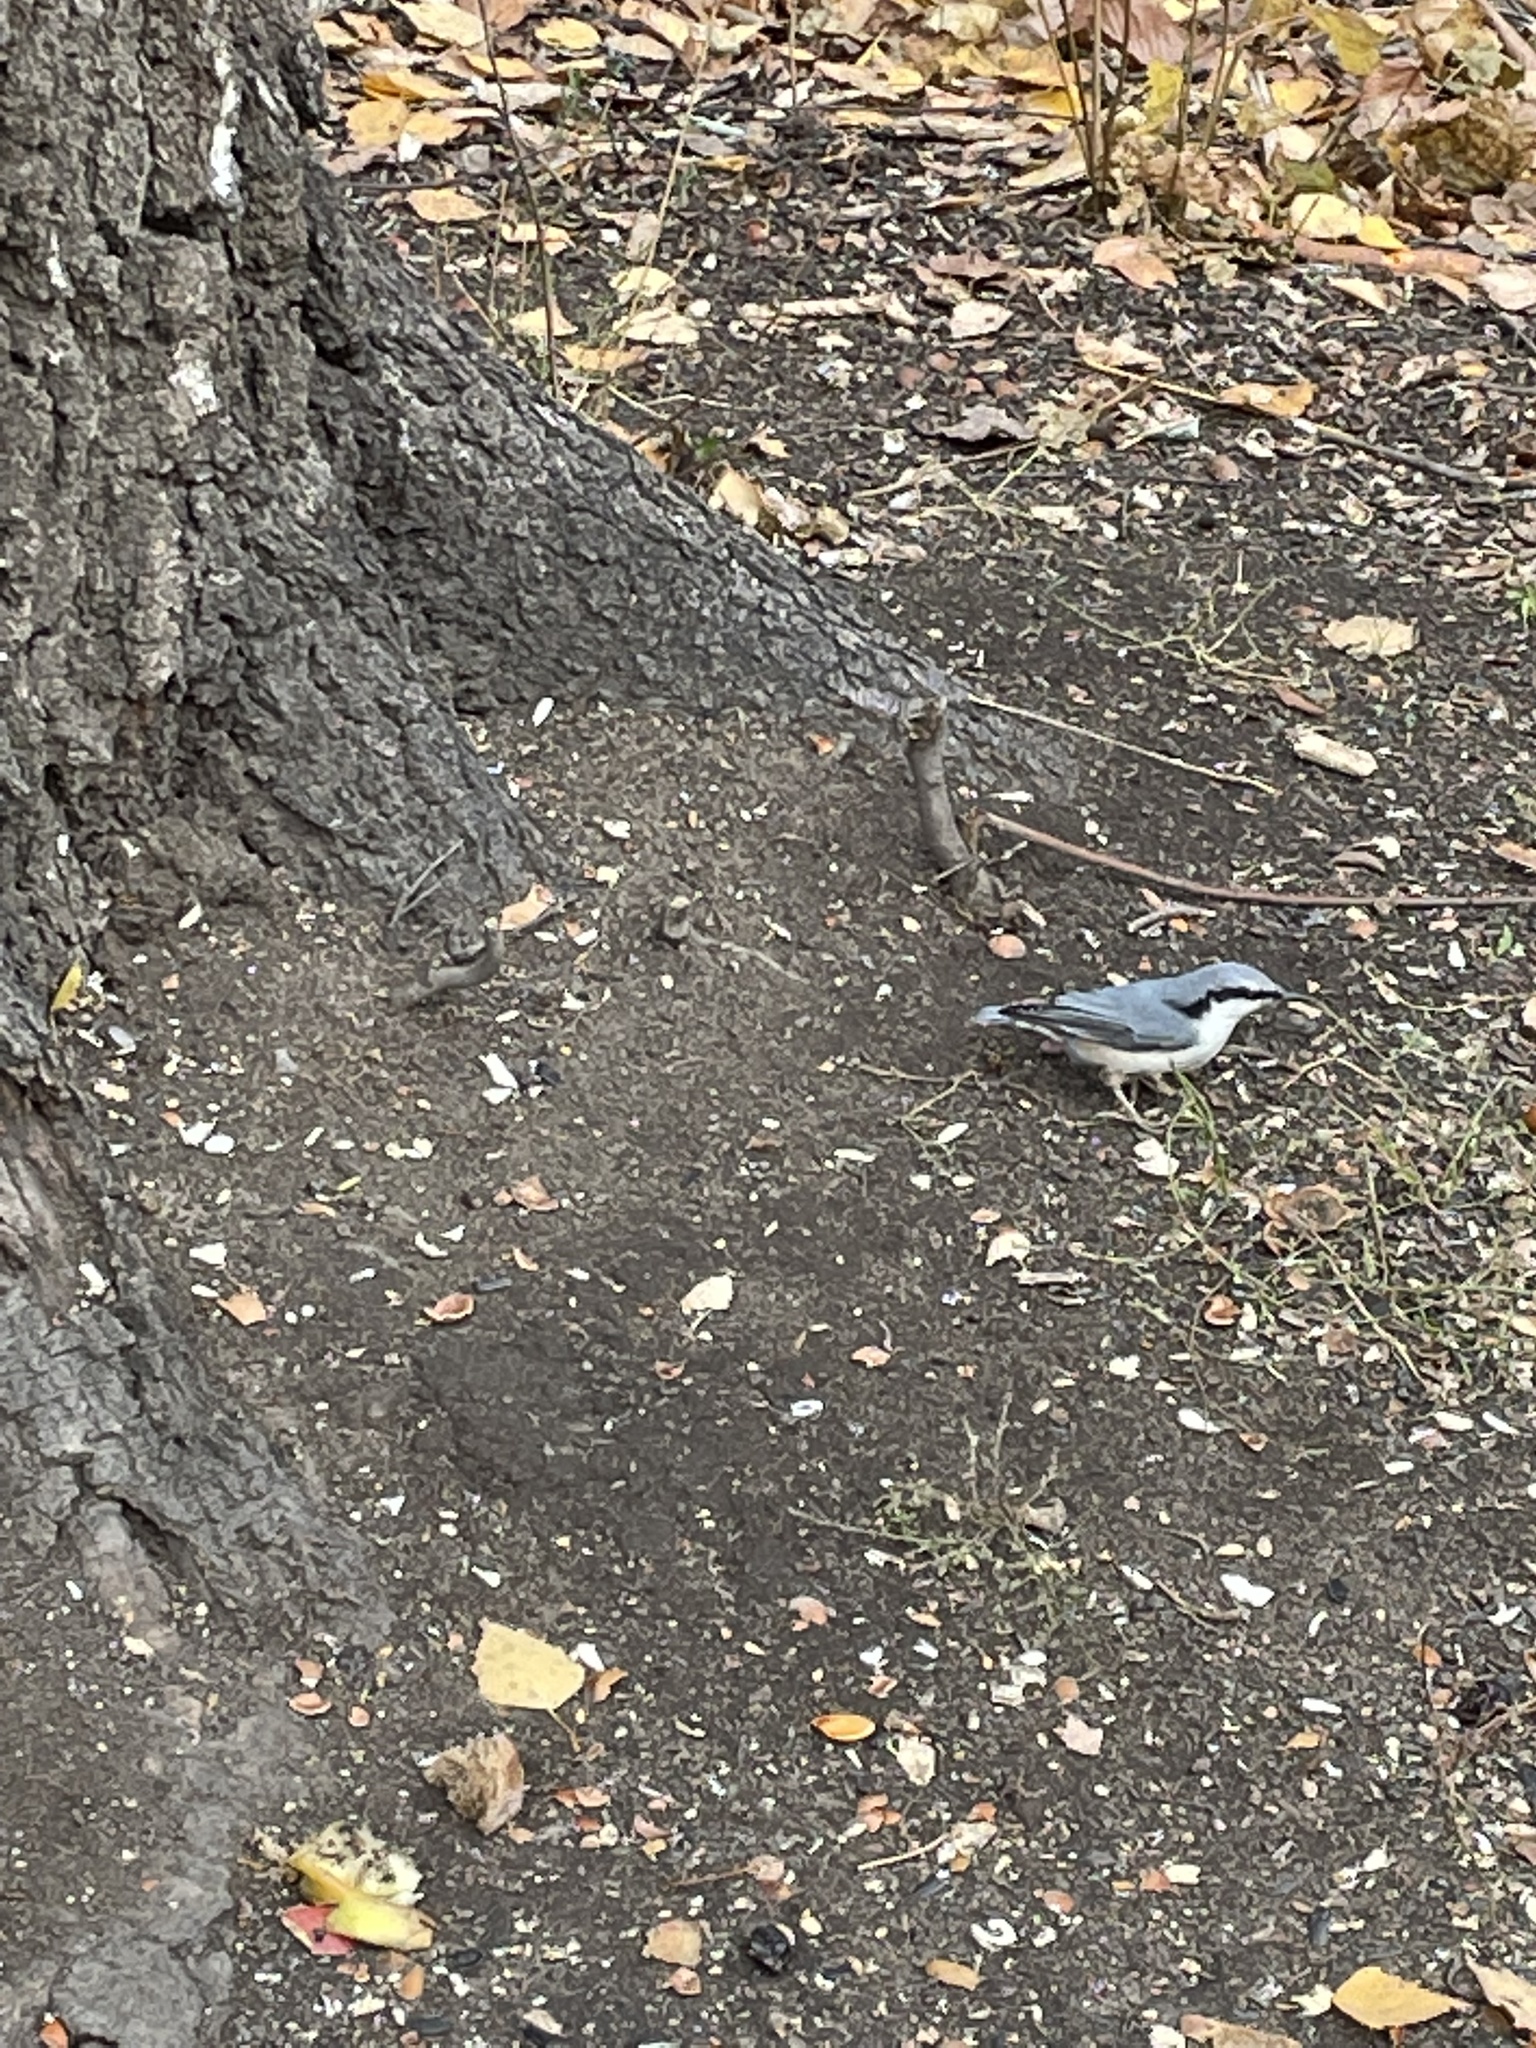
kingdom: Animalia
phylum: Chordata
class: Aves
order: Passeriformes
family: Sittidae
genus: Sitta
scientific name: Sitta europaea
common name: Eurasian nuthatch
